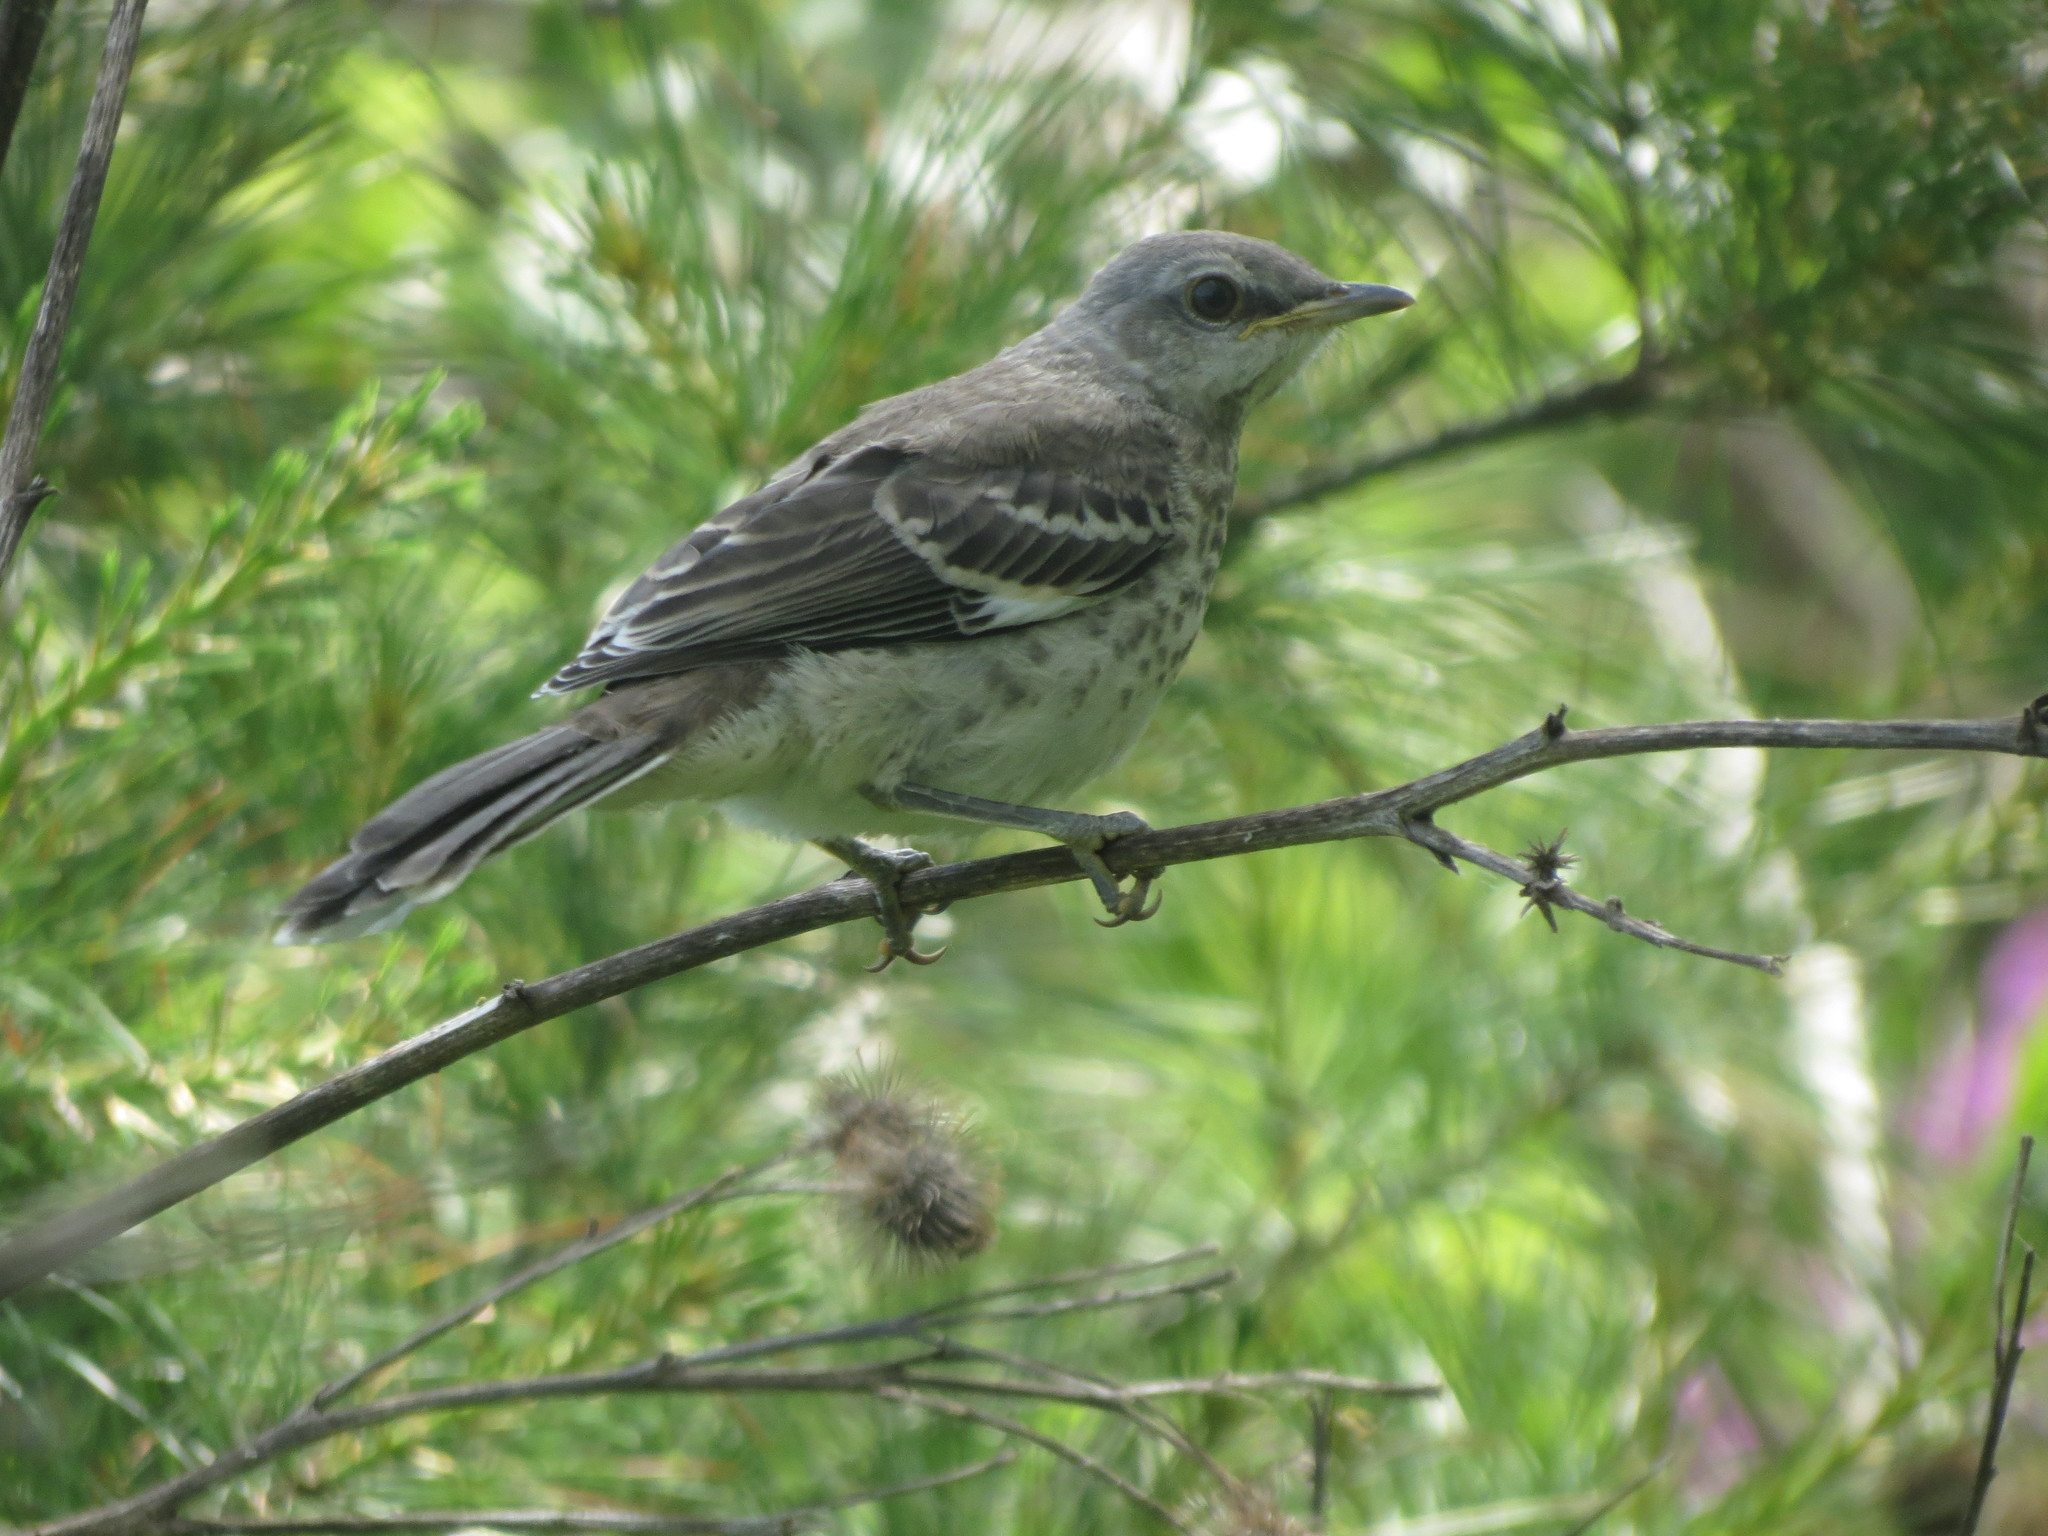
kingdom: Animalia
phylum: Chordata
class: Aves
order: Passeriformes
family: Mimidae
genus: Mimus
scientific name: Mimus polyglottos
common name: Northern mockingbird
